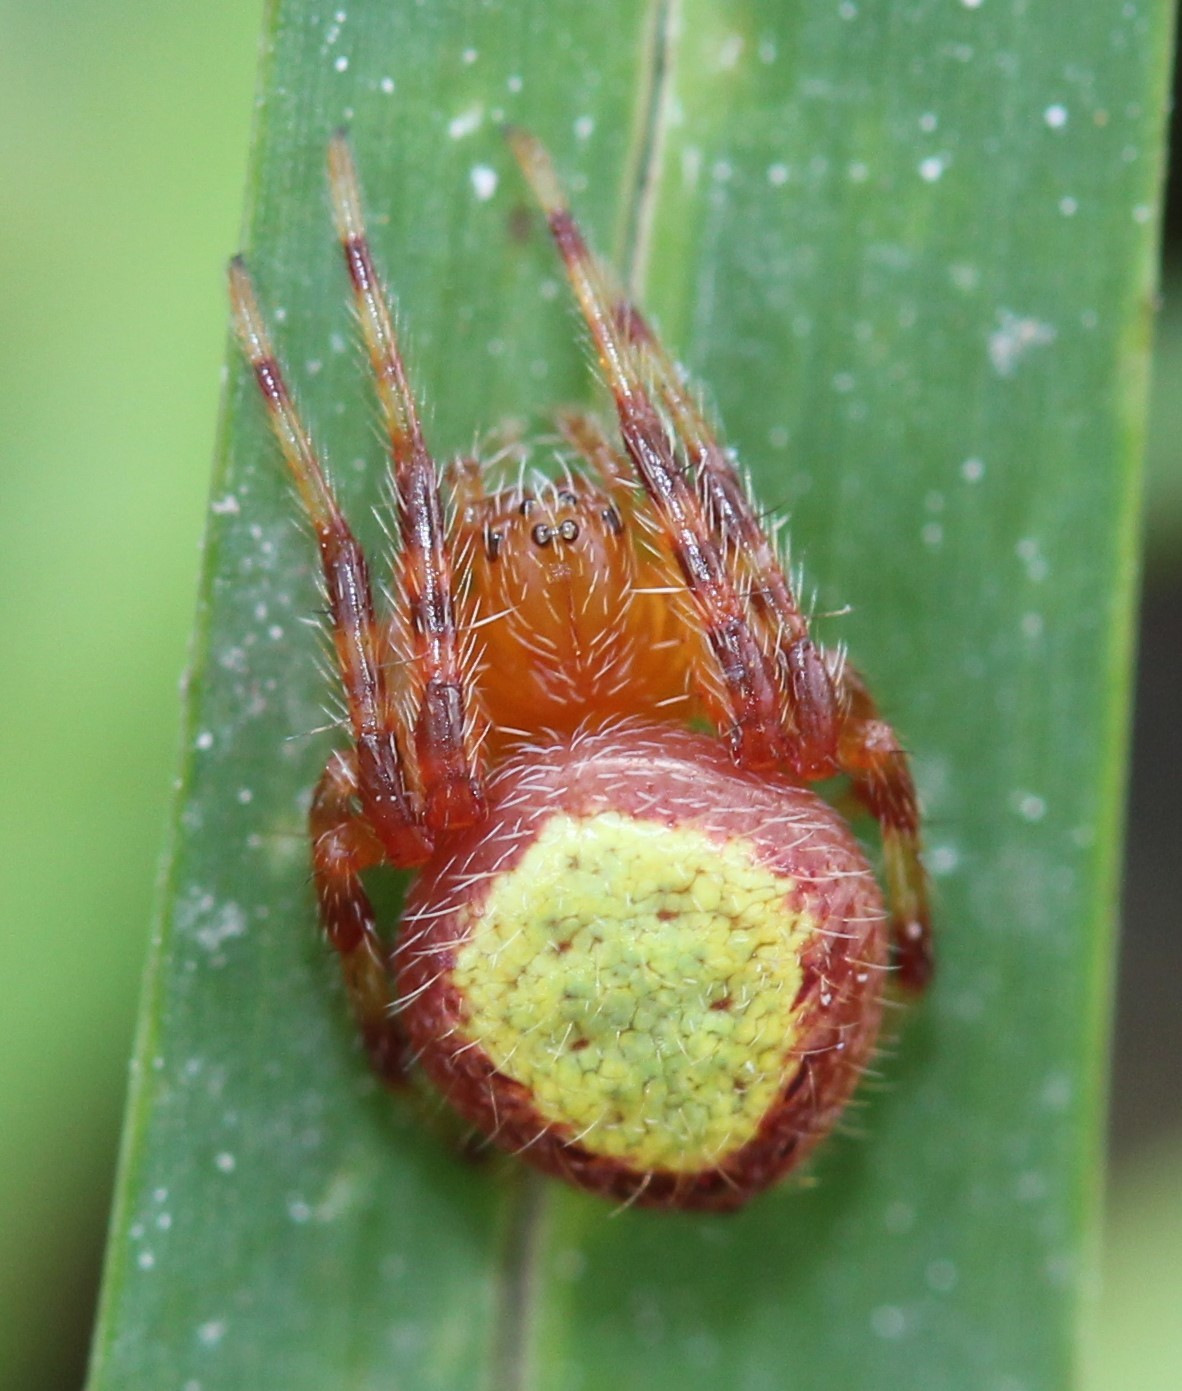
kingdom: Animalia
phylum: Arthropoda
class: Arachnida
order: Araneae
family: Araneidae
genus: Eriophora
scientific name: Eriophora ravilla
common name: Orb weavers
